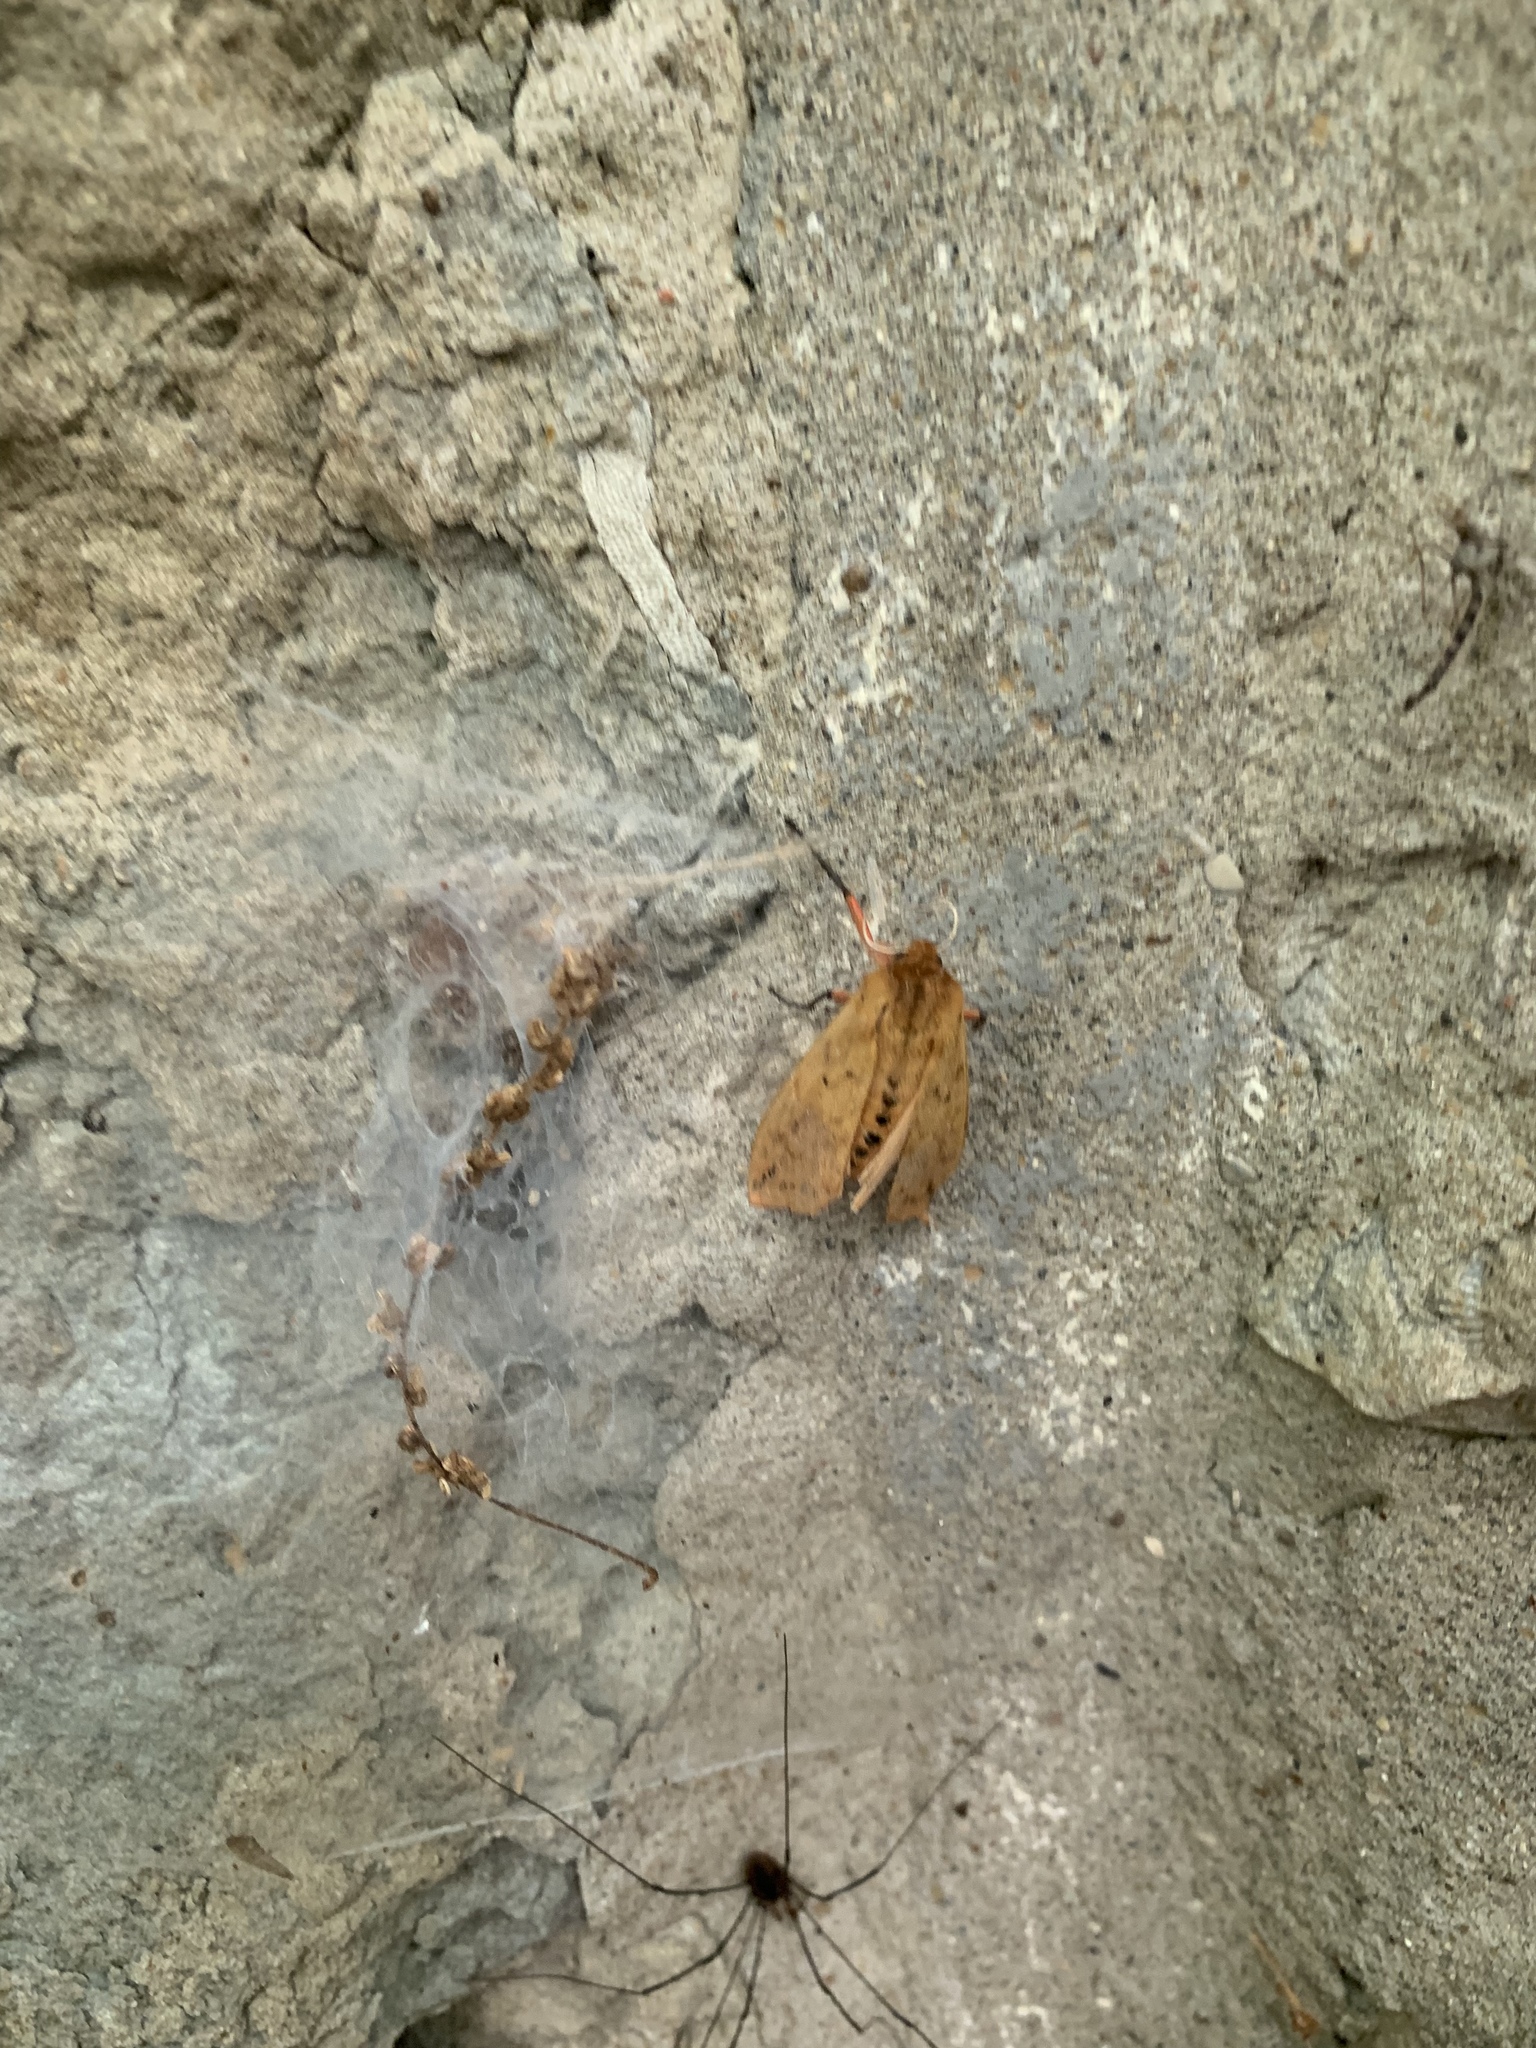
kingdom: Animalia
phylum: Arthropoda
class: Insecta
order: Lepidoptera
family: Erebidae
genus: Pyrrharctia
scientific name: Pyrrharctia isabella
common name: Isabella tiger moth
